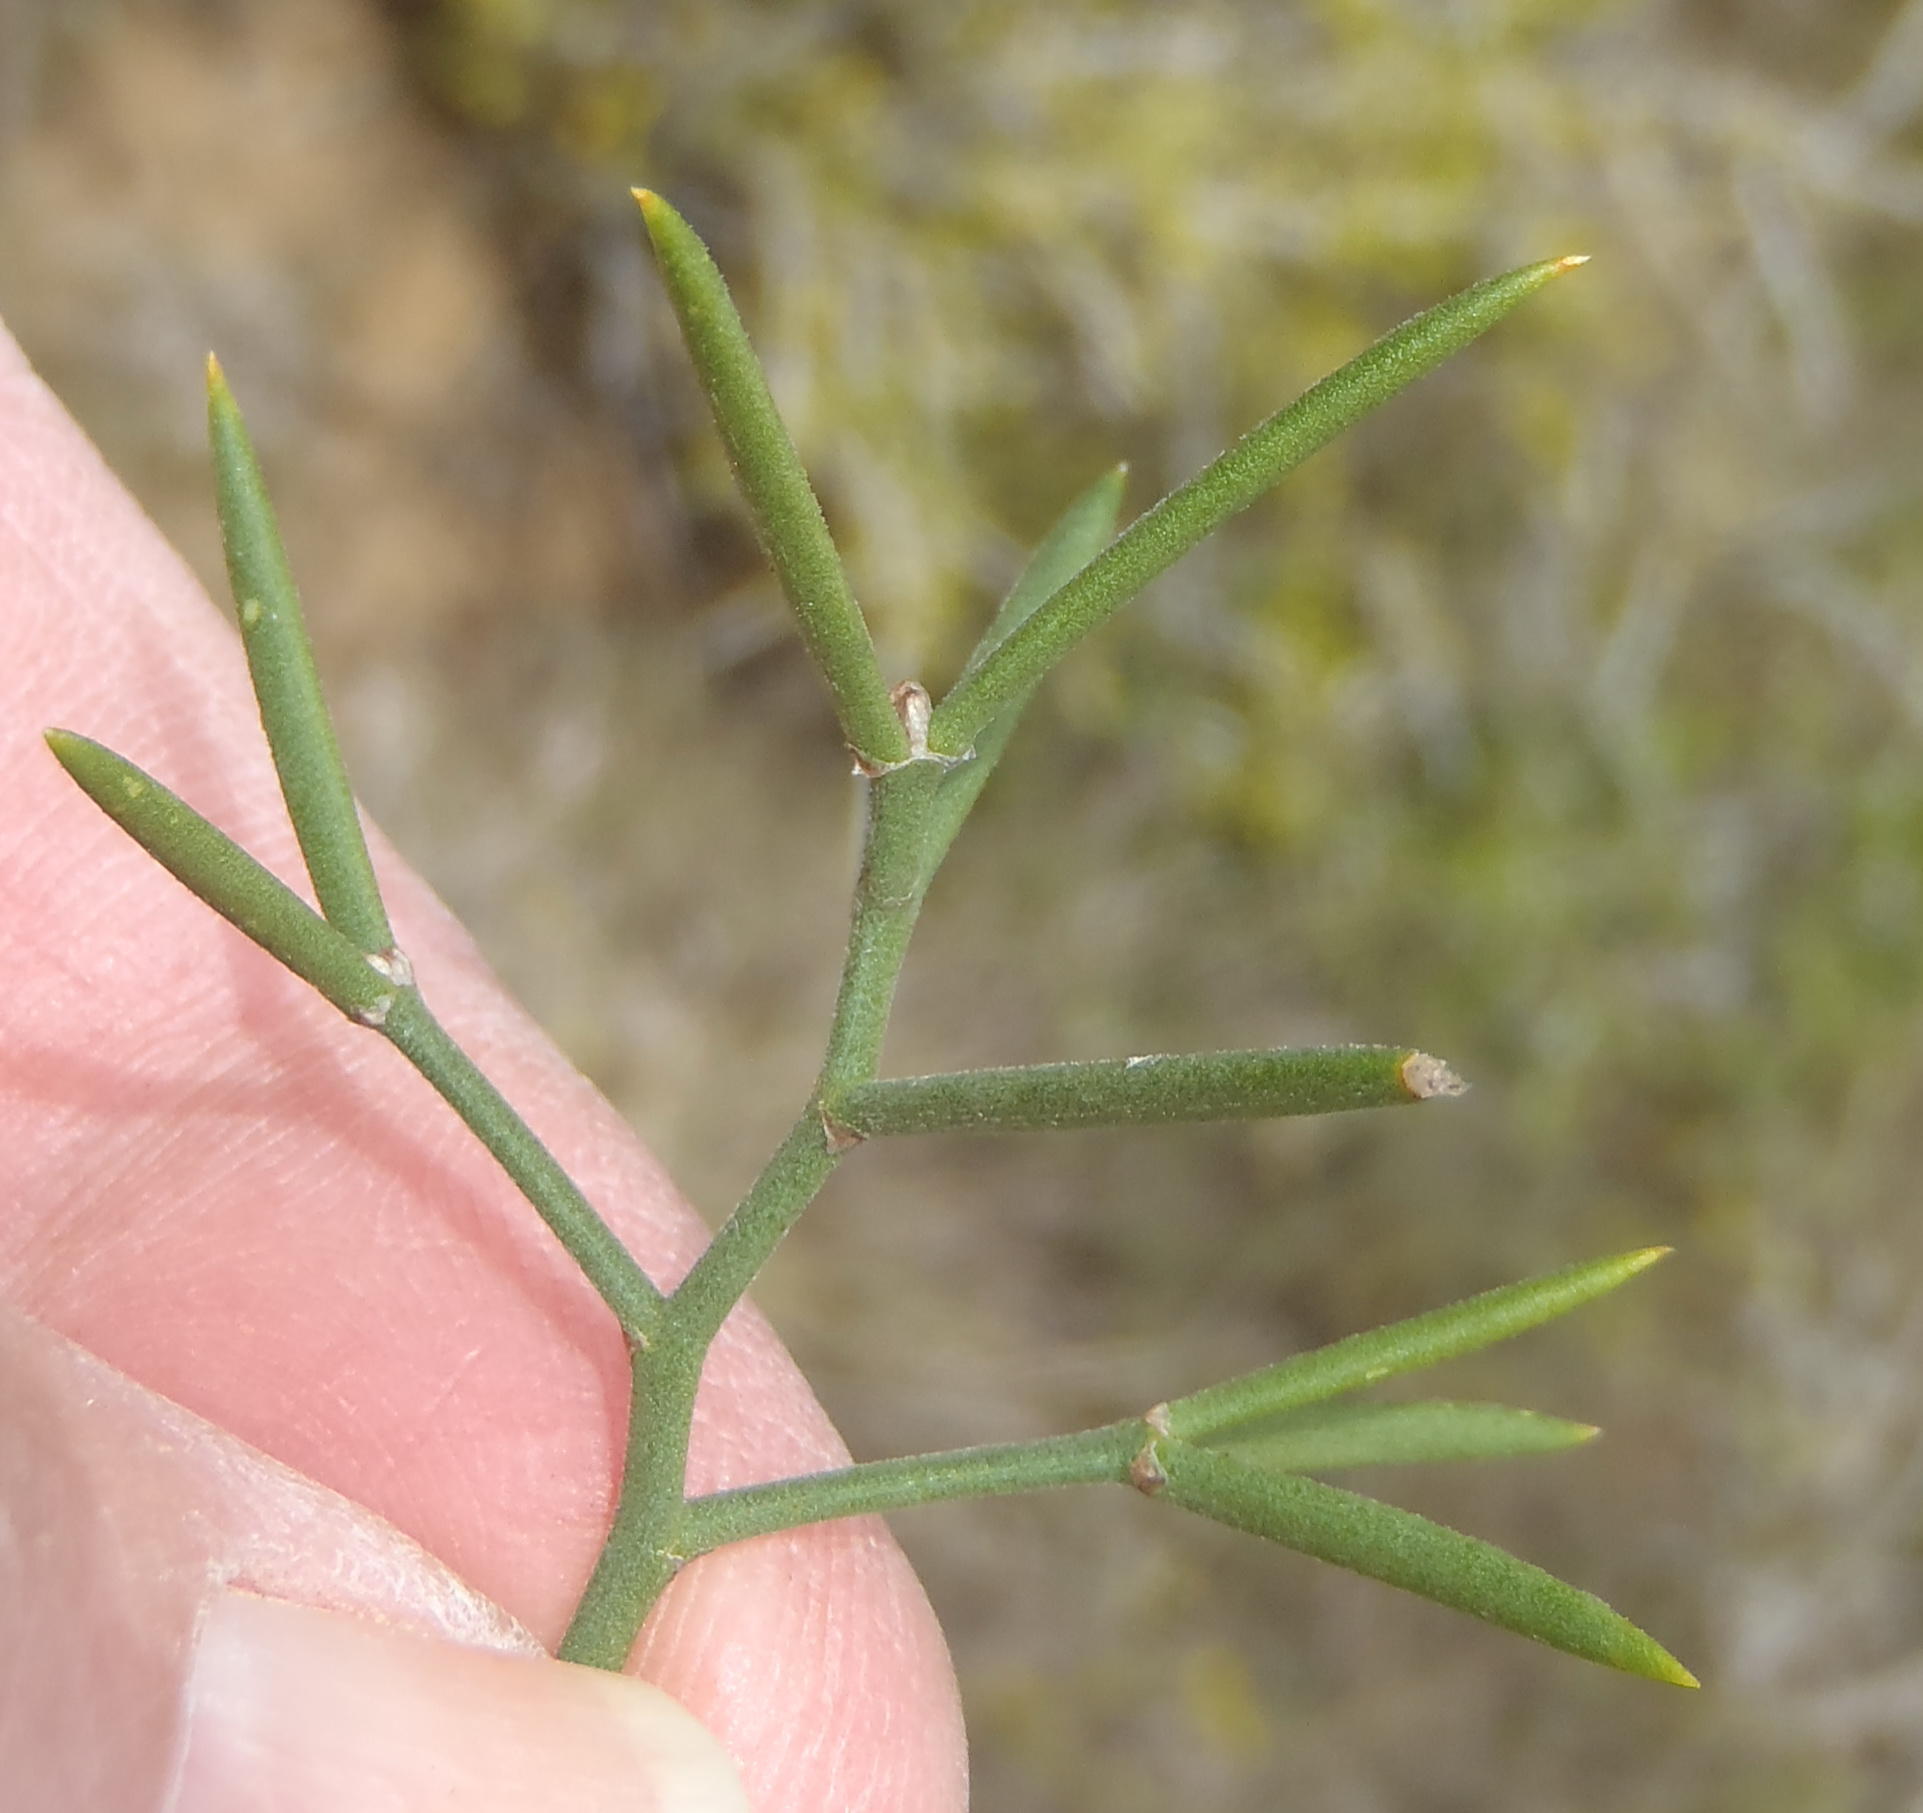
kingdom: Plantae
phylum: Tracheophyta
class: Liliopsida
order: Asparagales
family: Asparagaceae
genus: Asparagus
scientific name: Asparagus striatus
